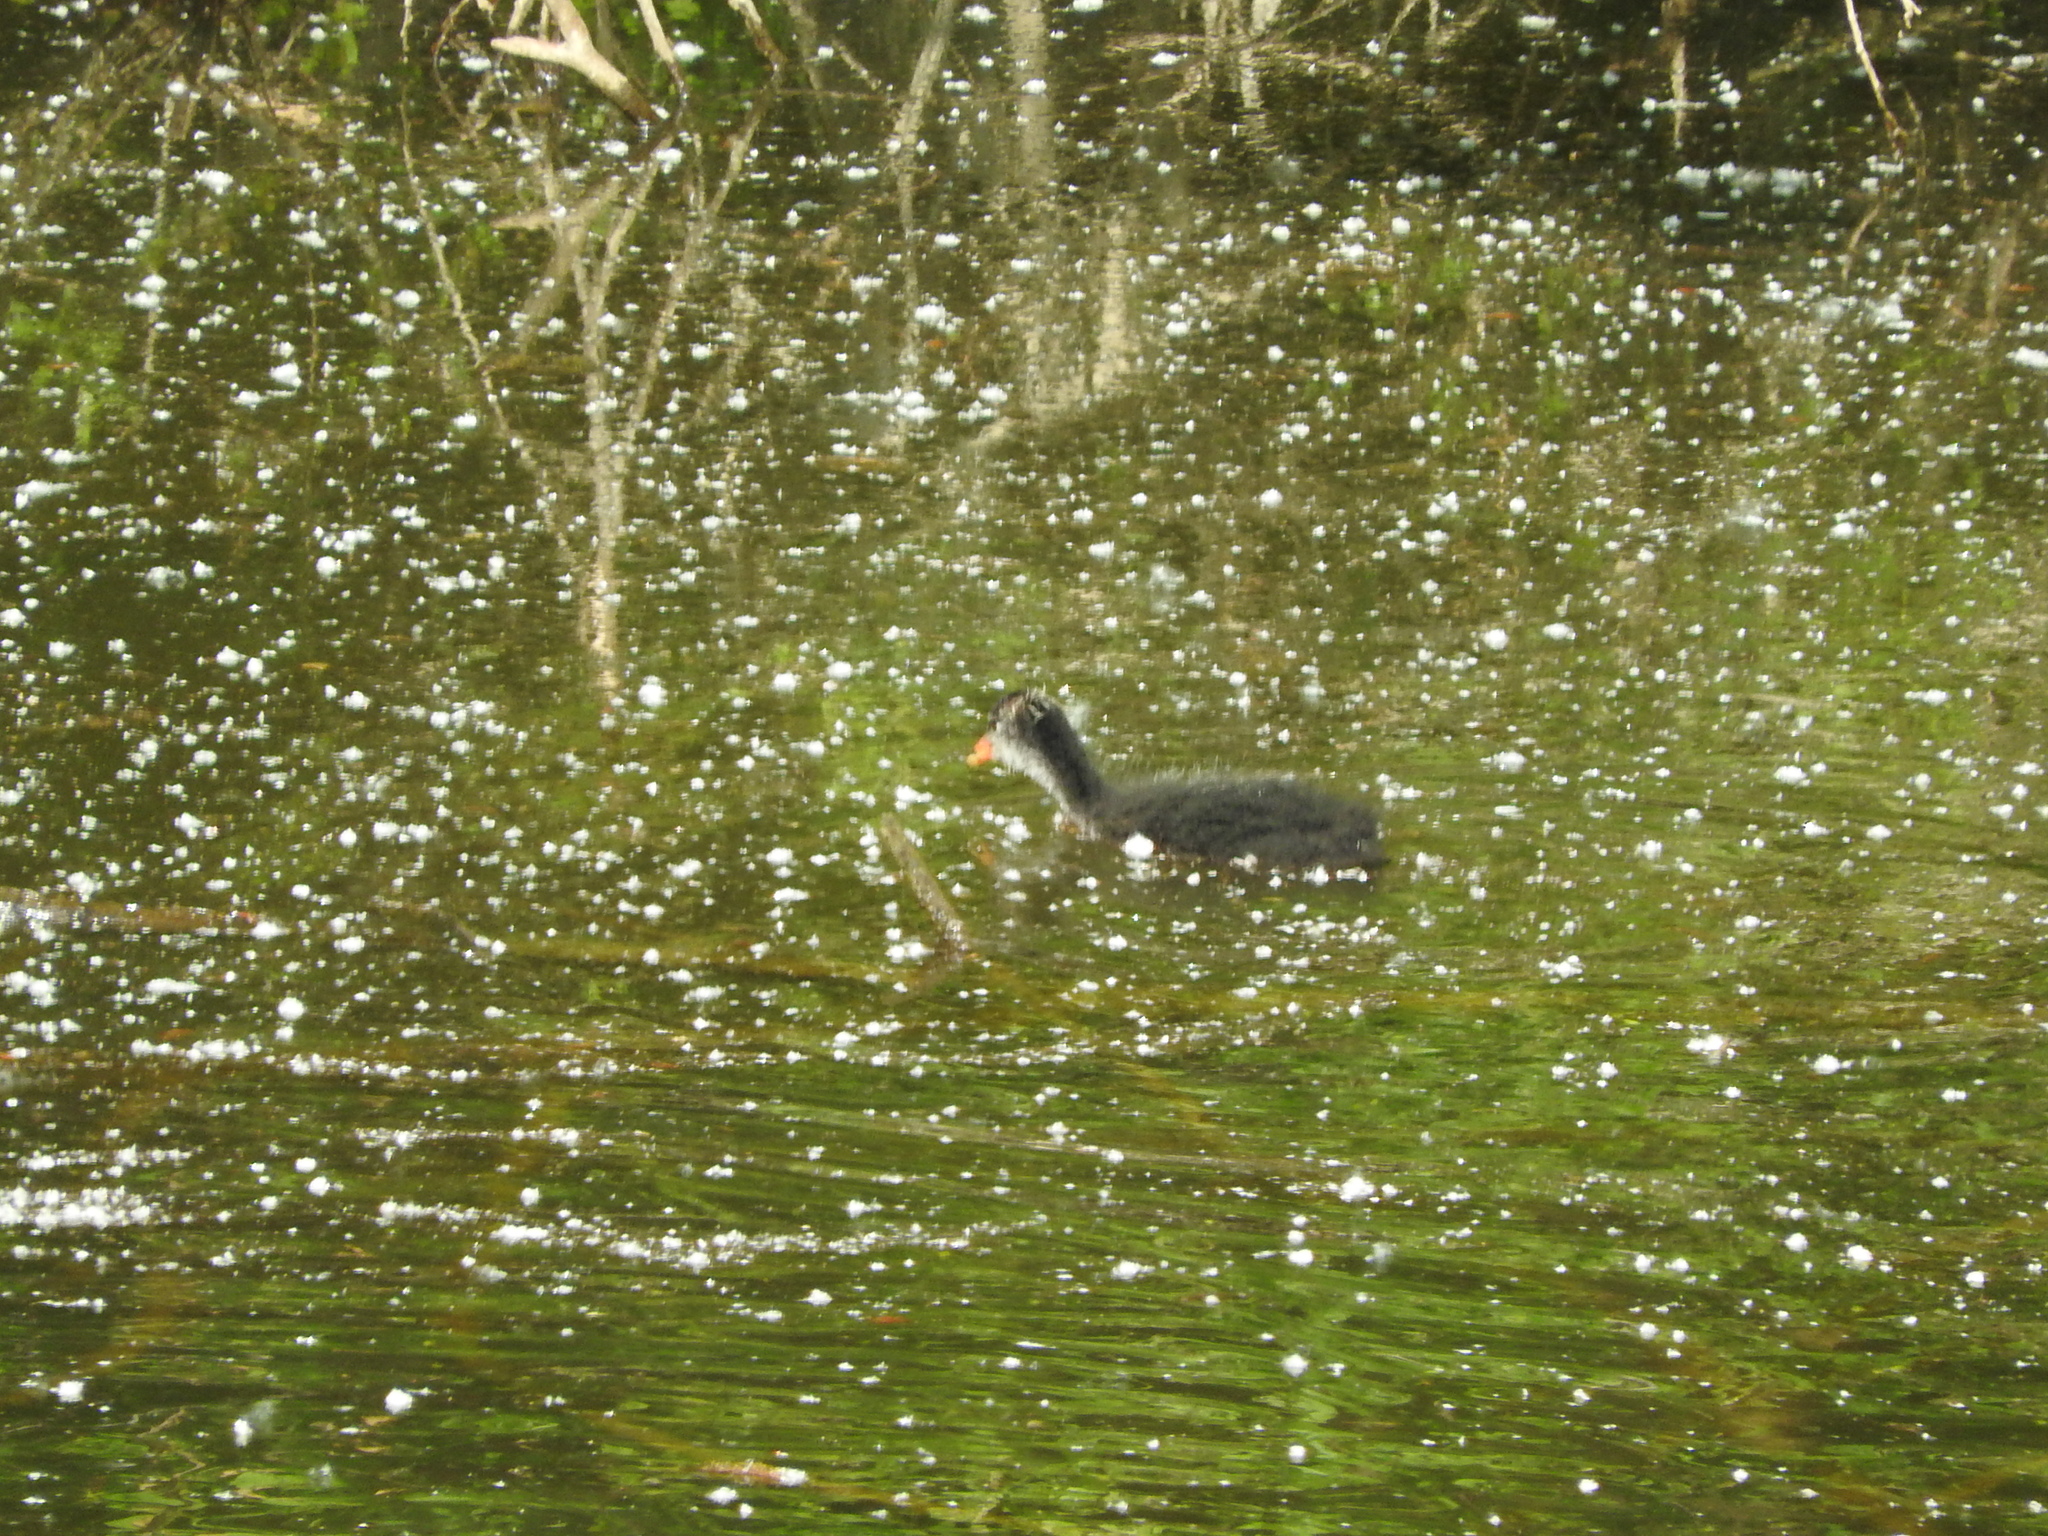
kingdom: Animalia
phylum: Chordata
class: Aves
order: Gruiformes
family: Rallidae
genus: Fulica
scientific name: Fulica atra
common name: Eurasian coot
